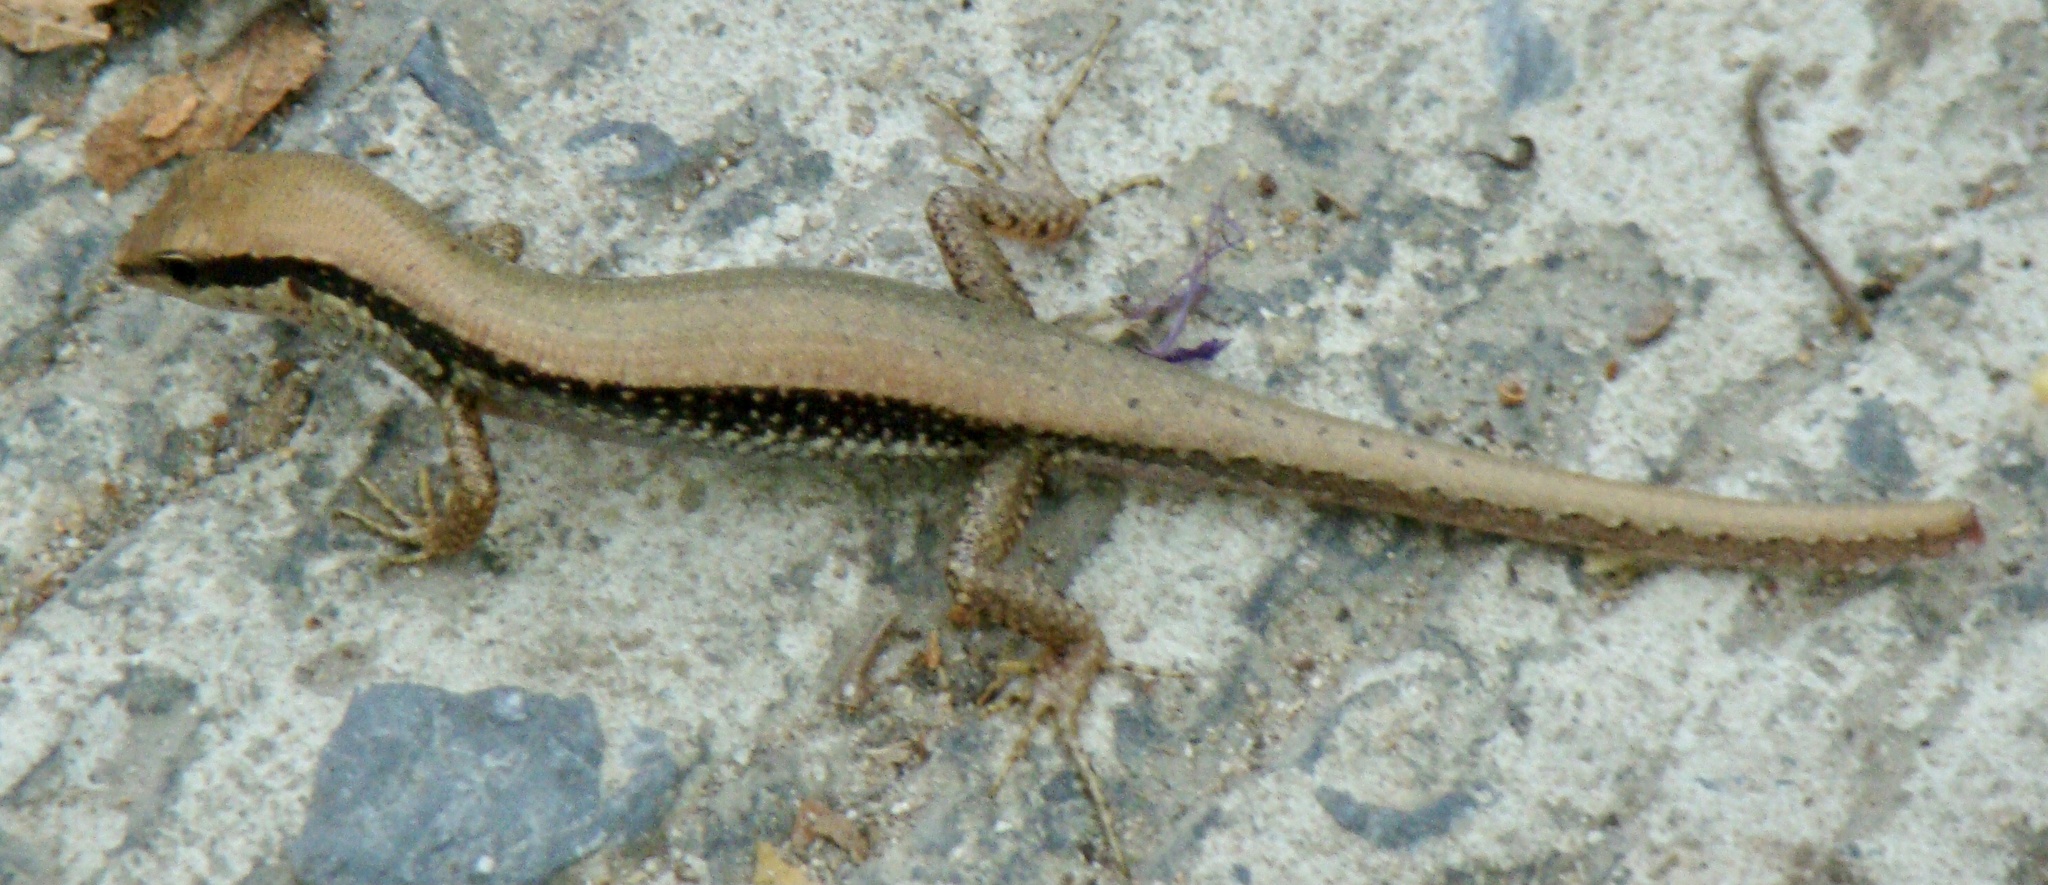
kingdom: Animalia
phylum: Chordata
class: Squamata
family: Scincidae
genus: Sphenomorphus
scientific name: Sphenomorphus maculatus
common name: Maculated forest skink
